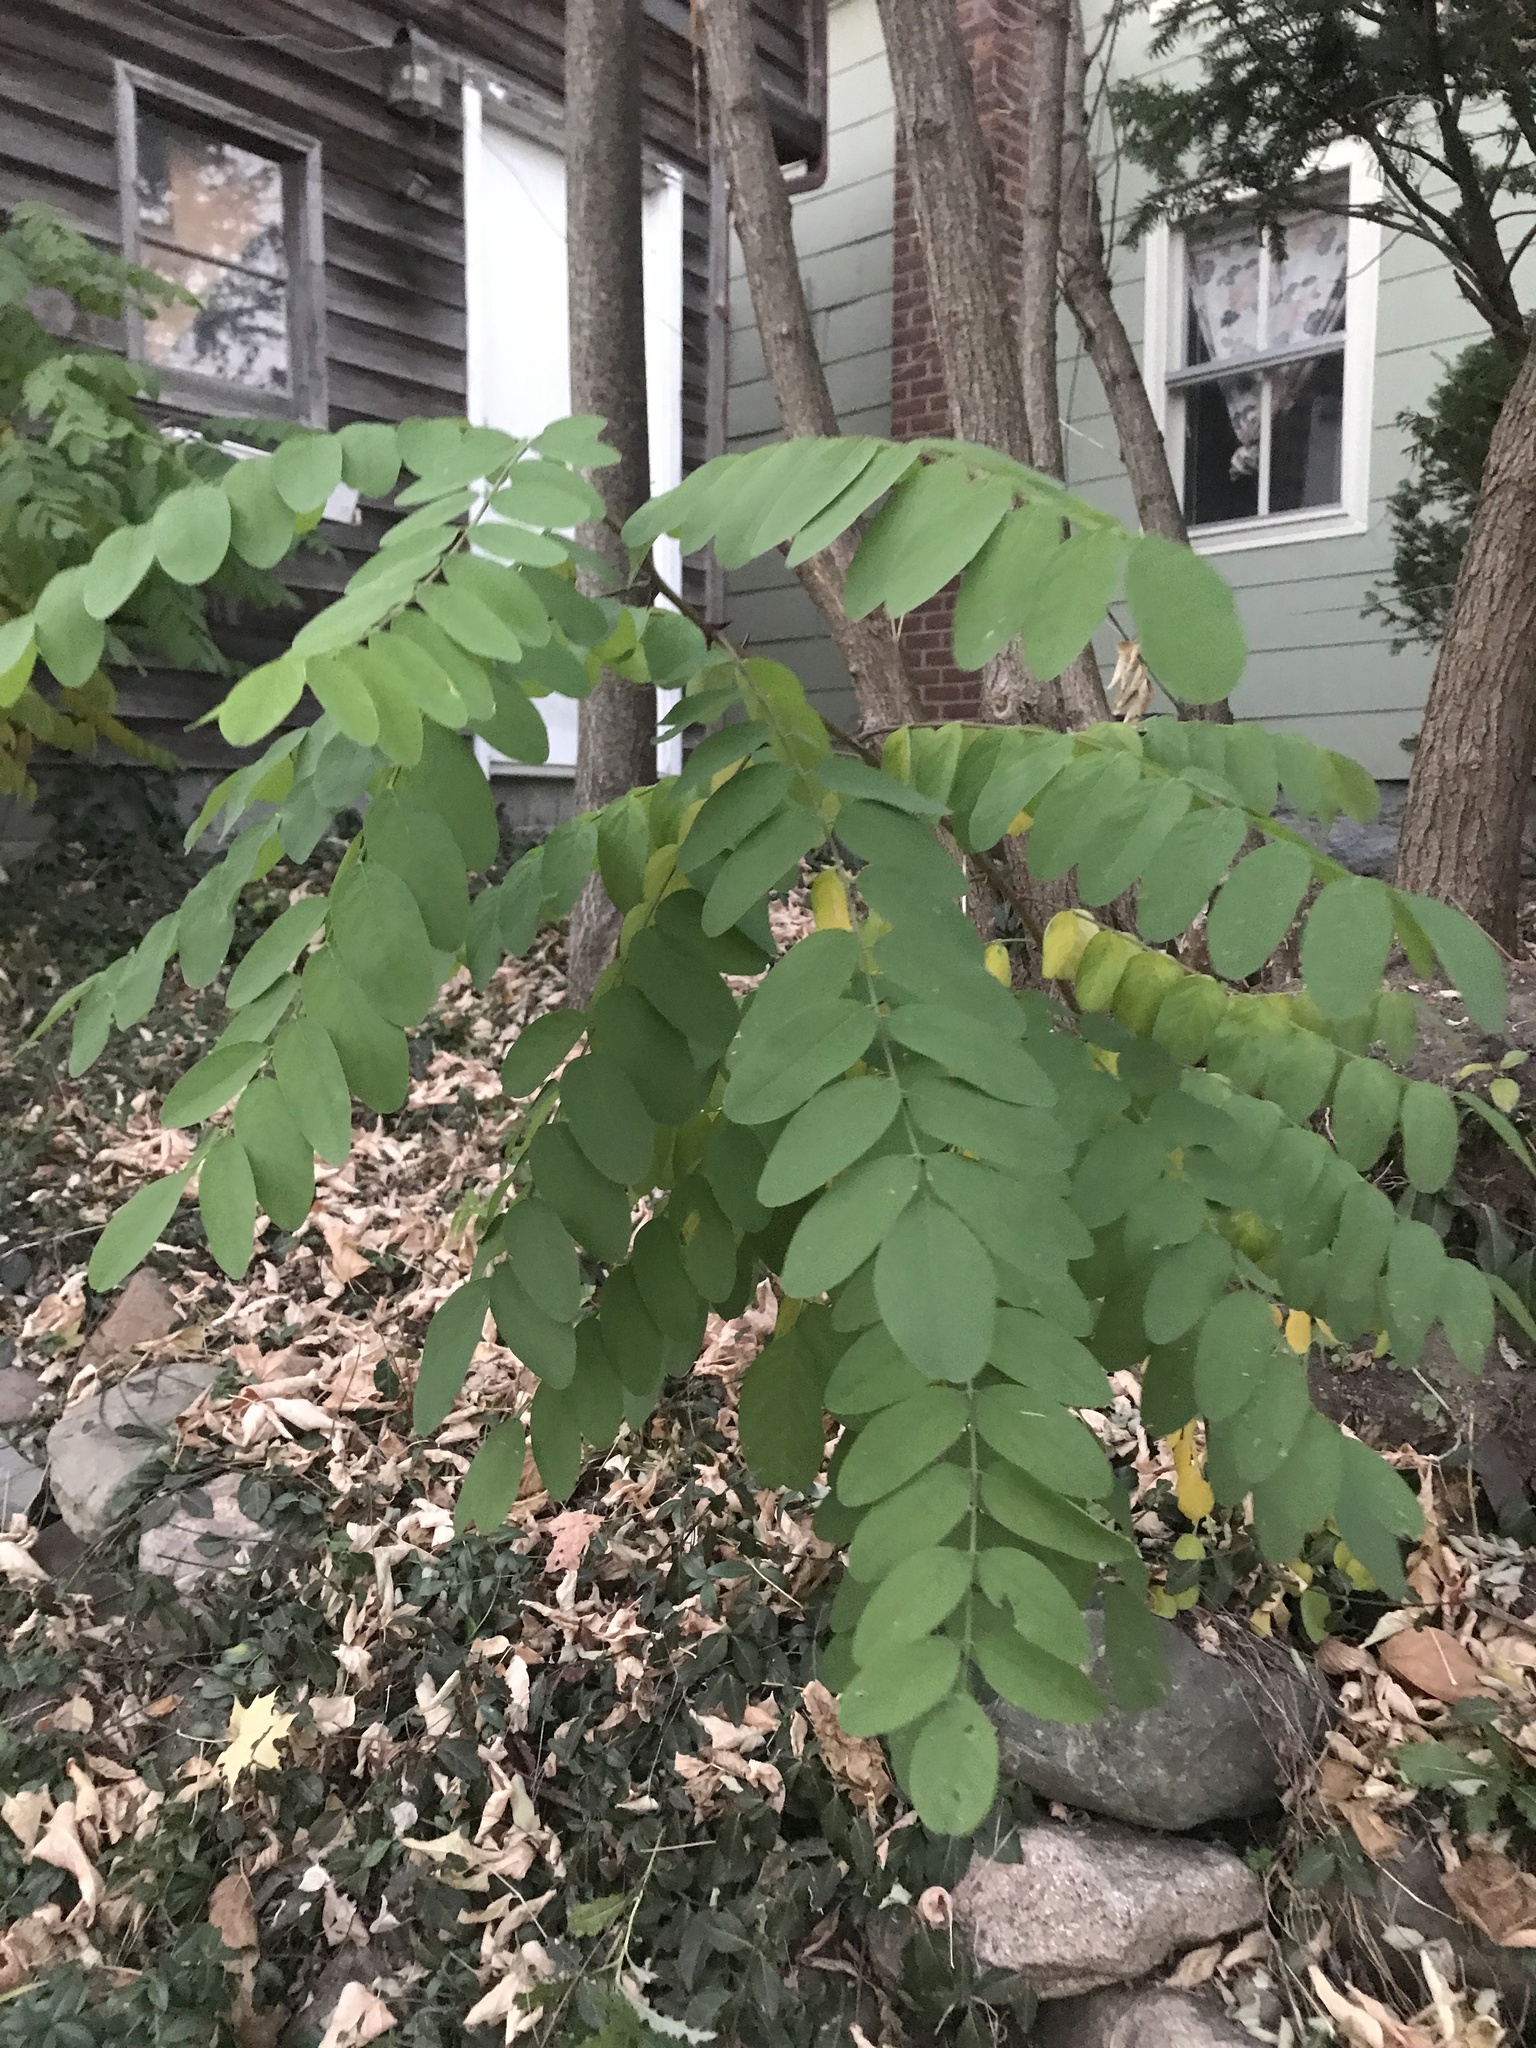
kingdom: Plantae
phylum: Tracheophyta
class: Magnoliopsida
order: Fabales
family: Fabaceae
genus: Robinia
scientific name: Robinia pseudoacacia
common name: Black locust
